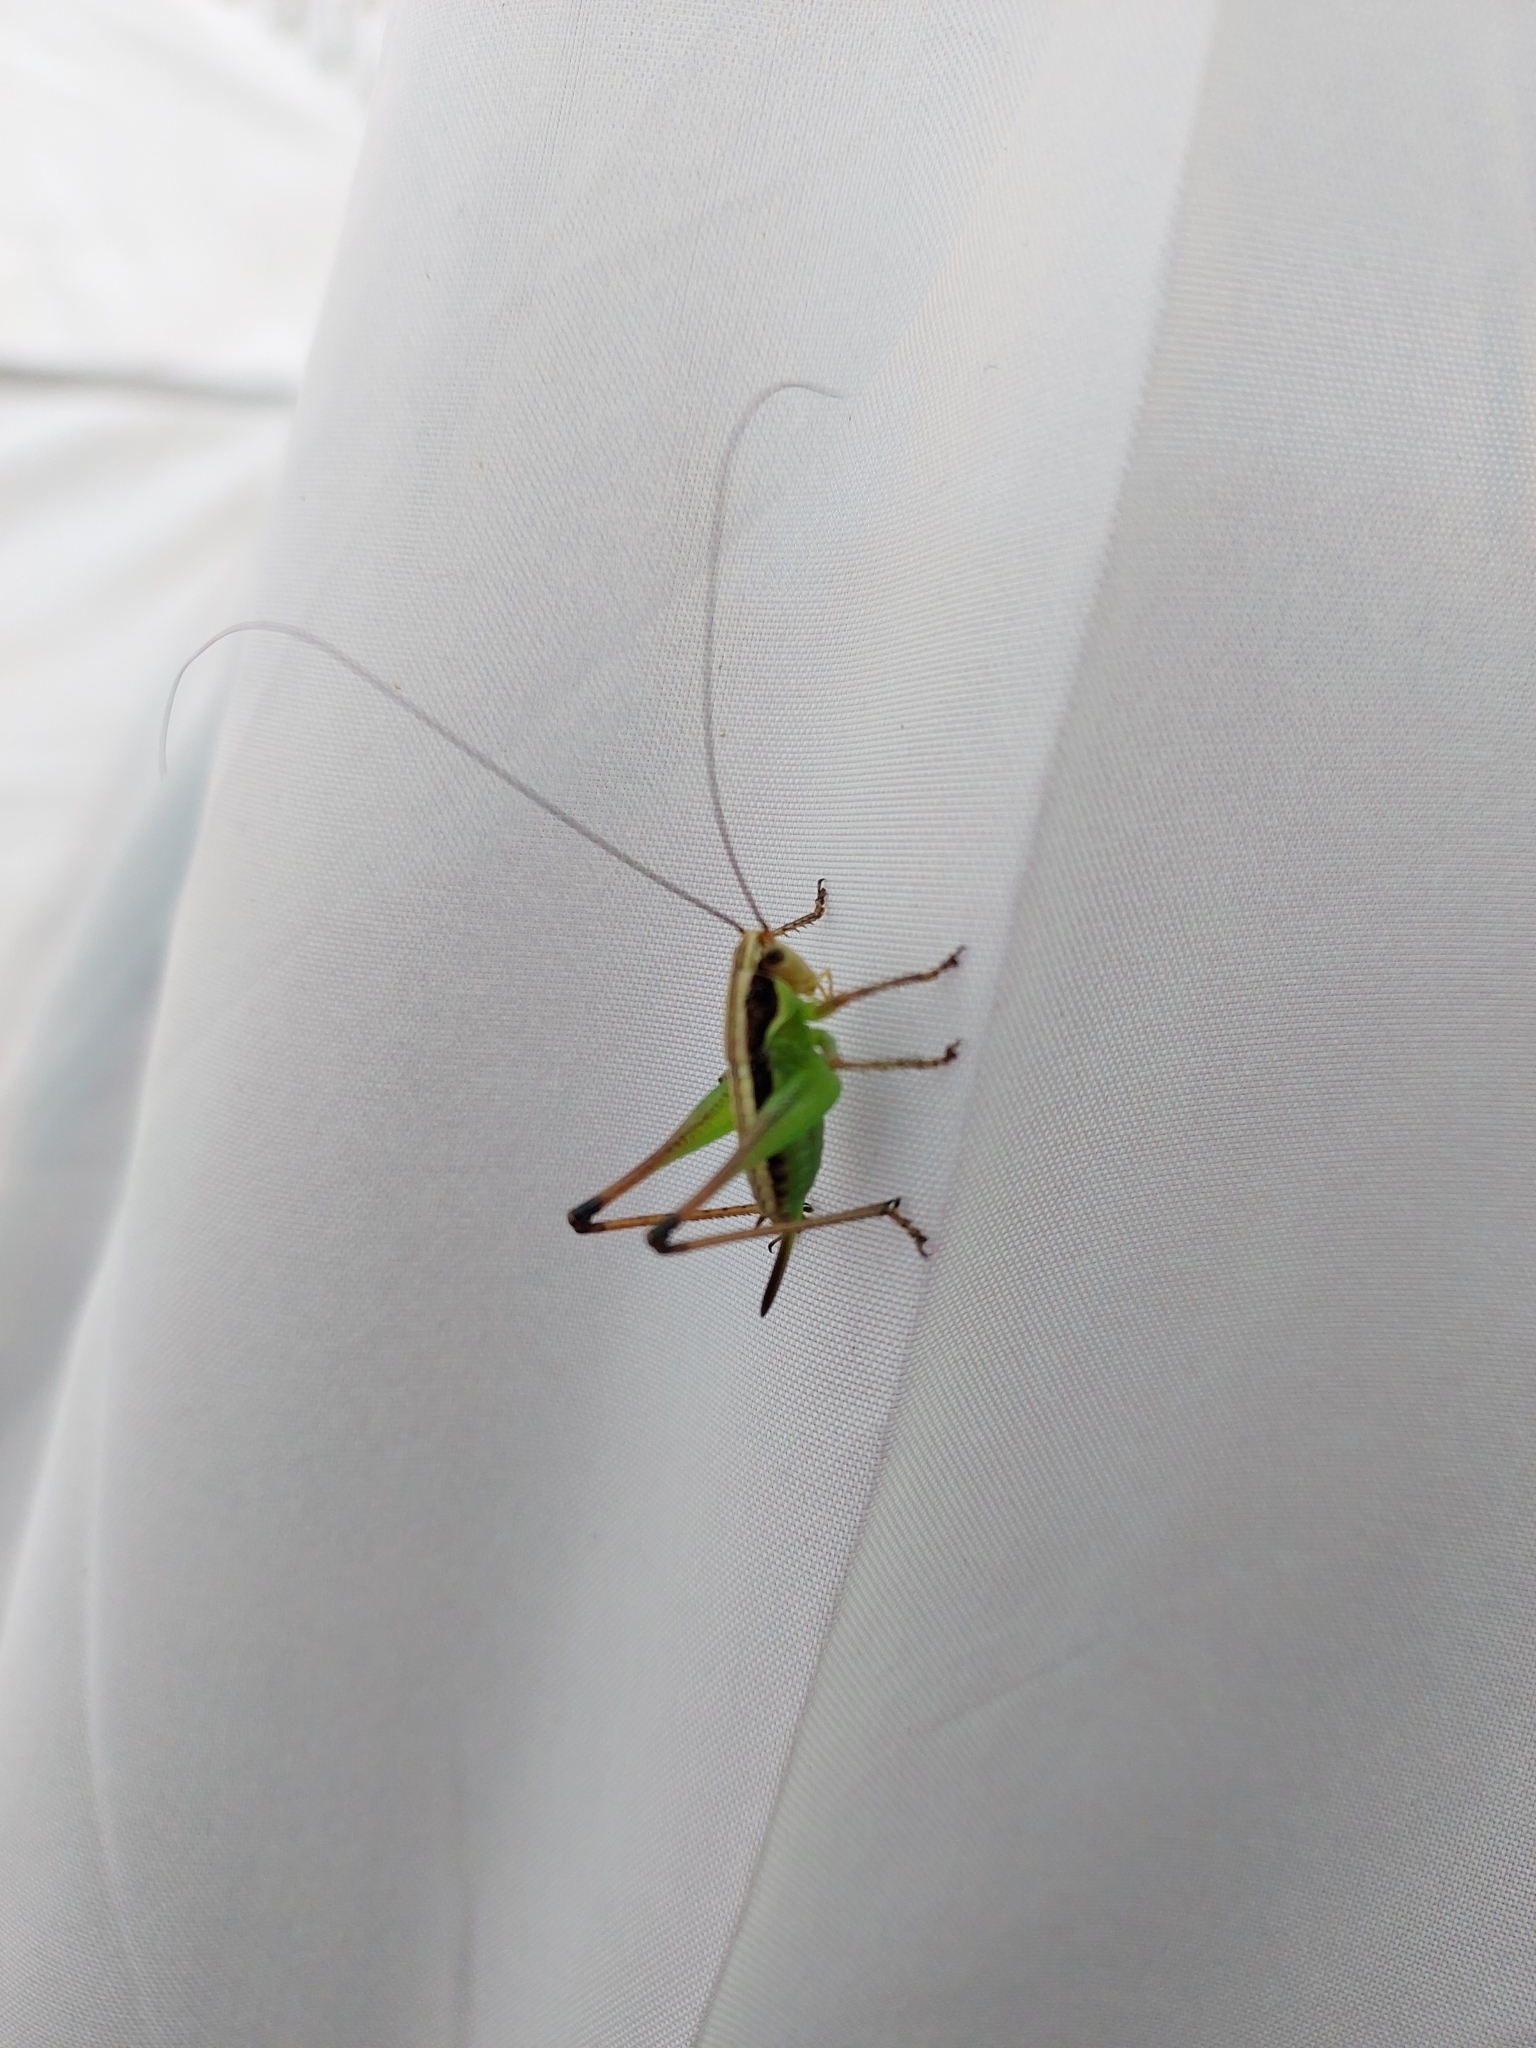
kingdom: Animalia
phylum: Arthropoda
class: Insecta
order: Orthoptera
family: Tettigoniidae
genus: Pachytrachis
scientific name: Pachytrachis gracilis
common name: Graceful bush-cricket
